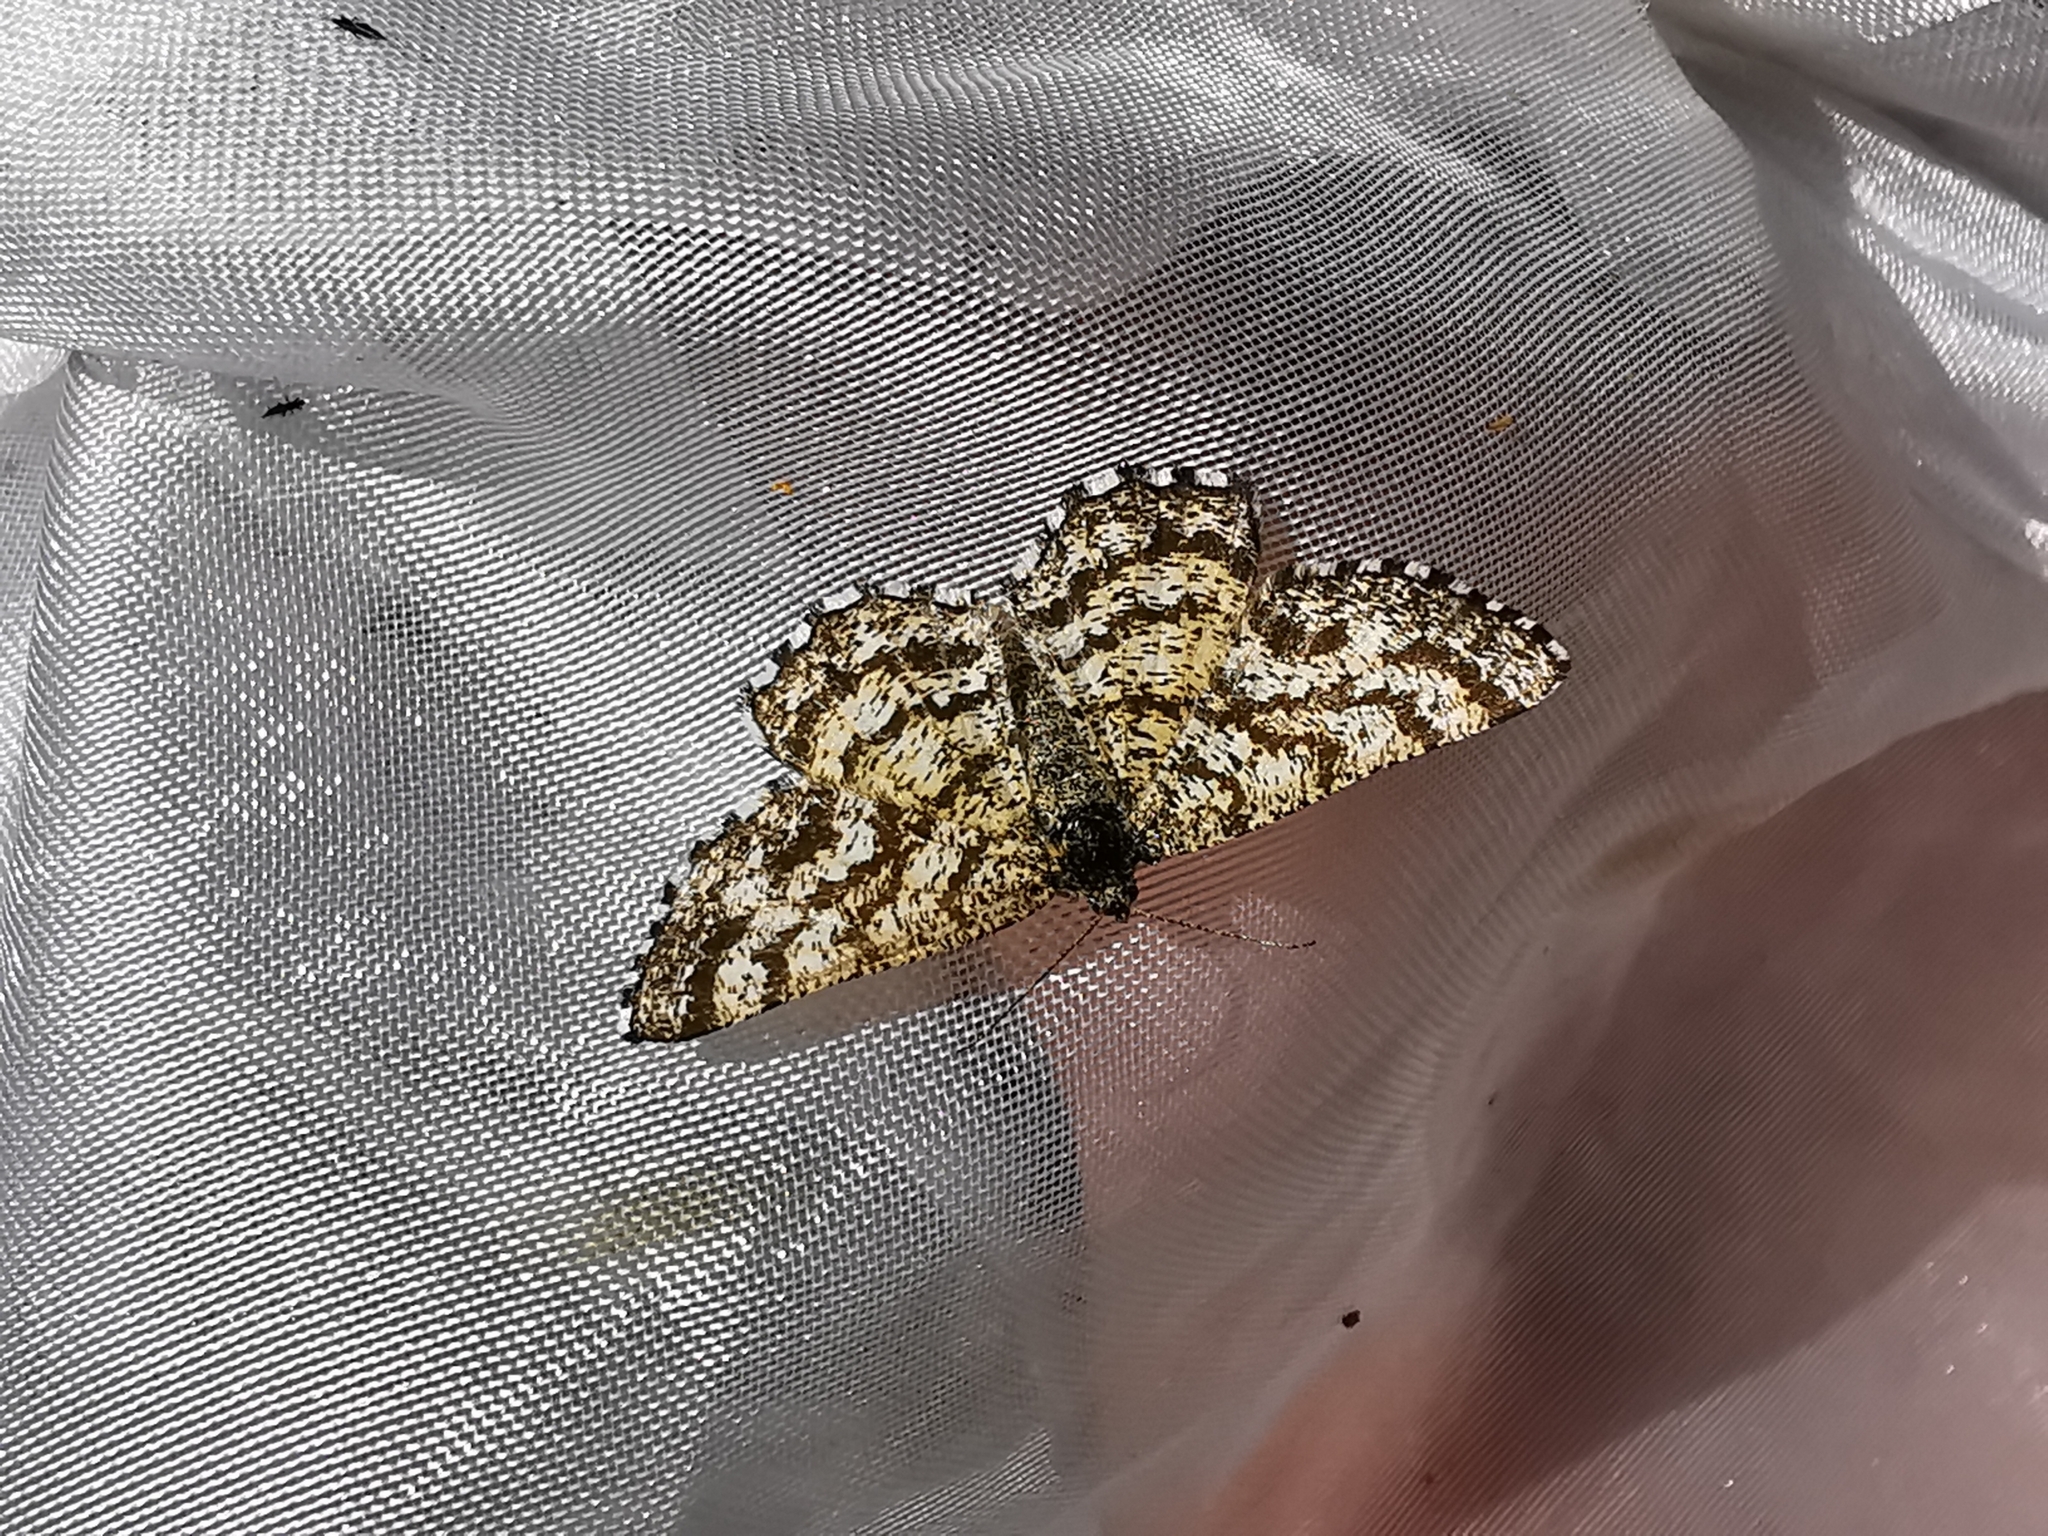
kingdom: Animalia
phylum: Arthropoda
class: Insecta
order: Lepidoptera
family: Geometridae
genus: Ematurga
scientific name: Ematurga atomaria
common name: Common heath
